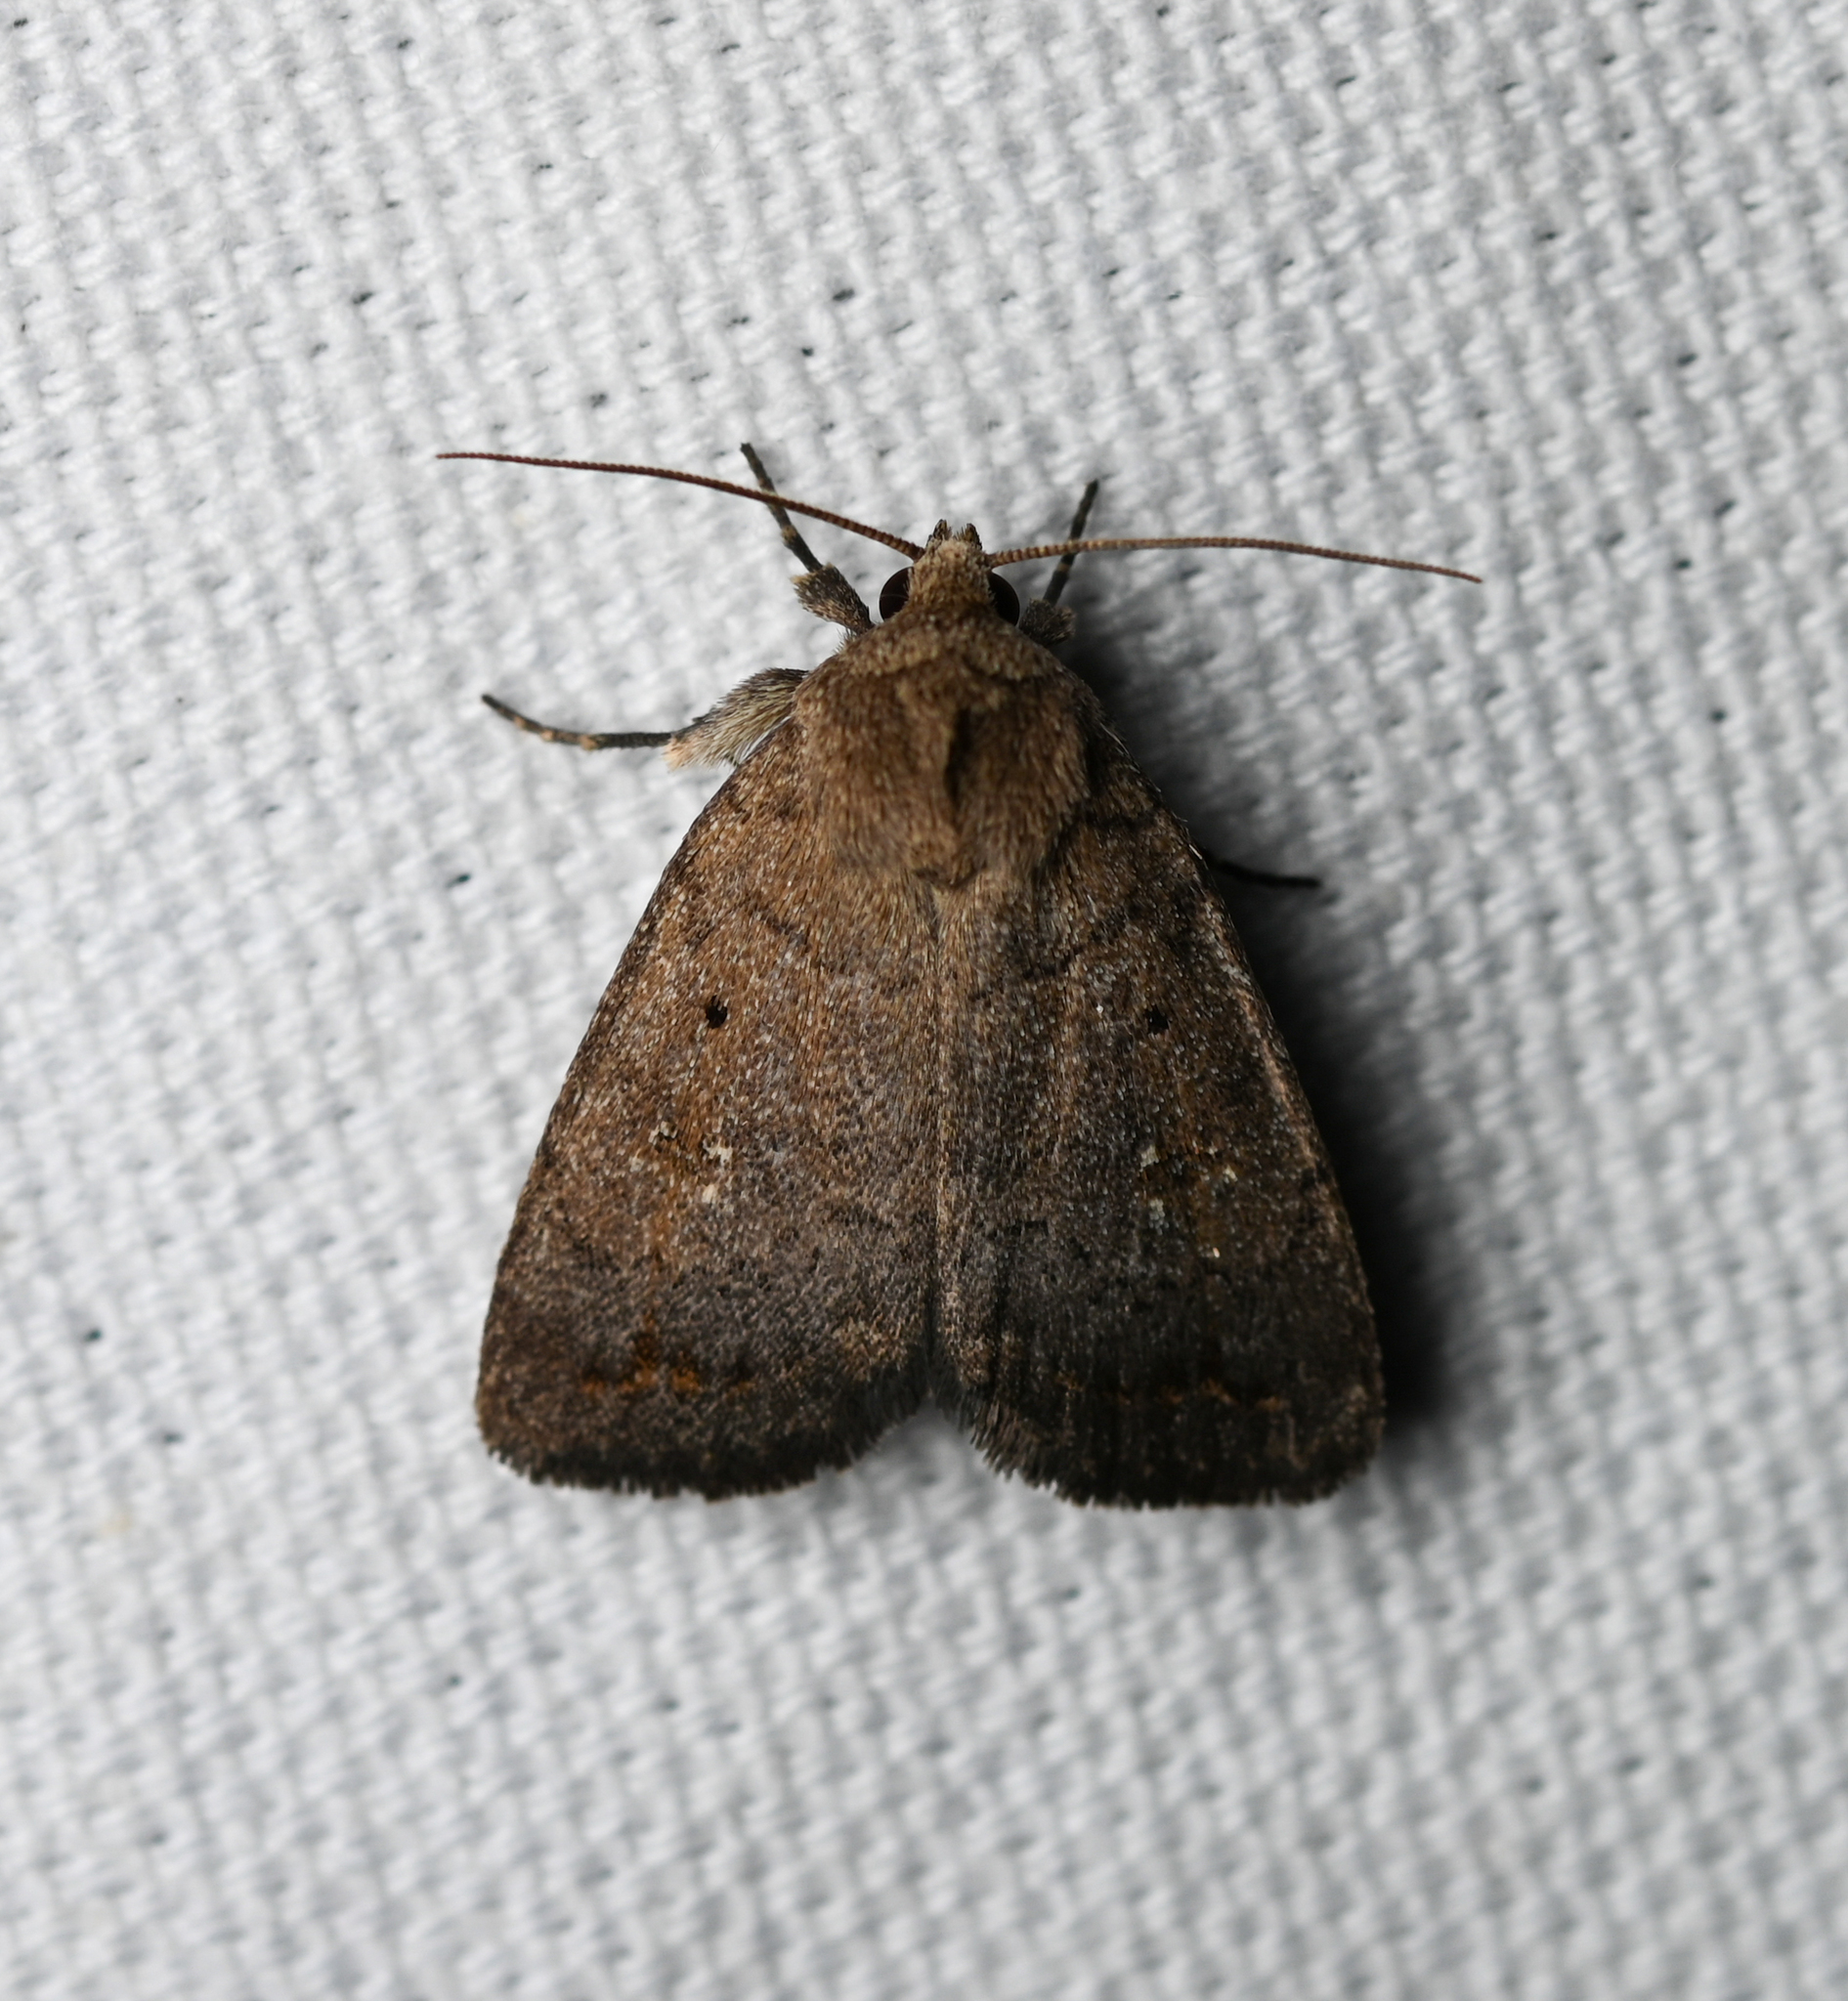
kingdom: Animalia
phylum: Arthropoda
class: Insecta
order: Lepidoptera
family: Noctuidae
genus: Athetis
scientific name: Athetis tarda
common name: Slowpoke moth
